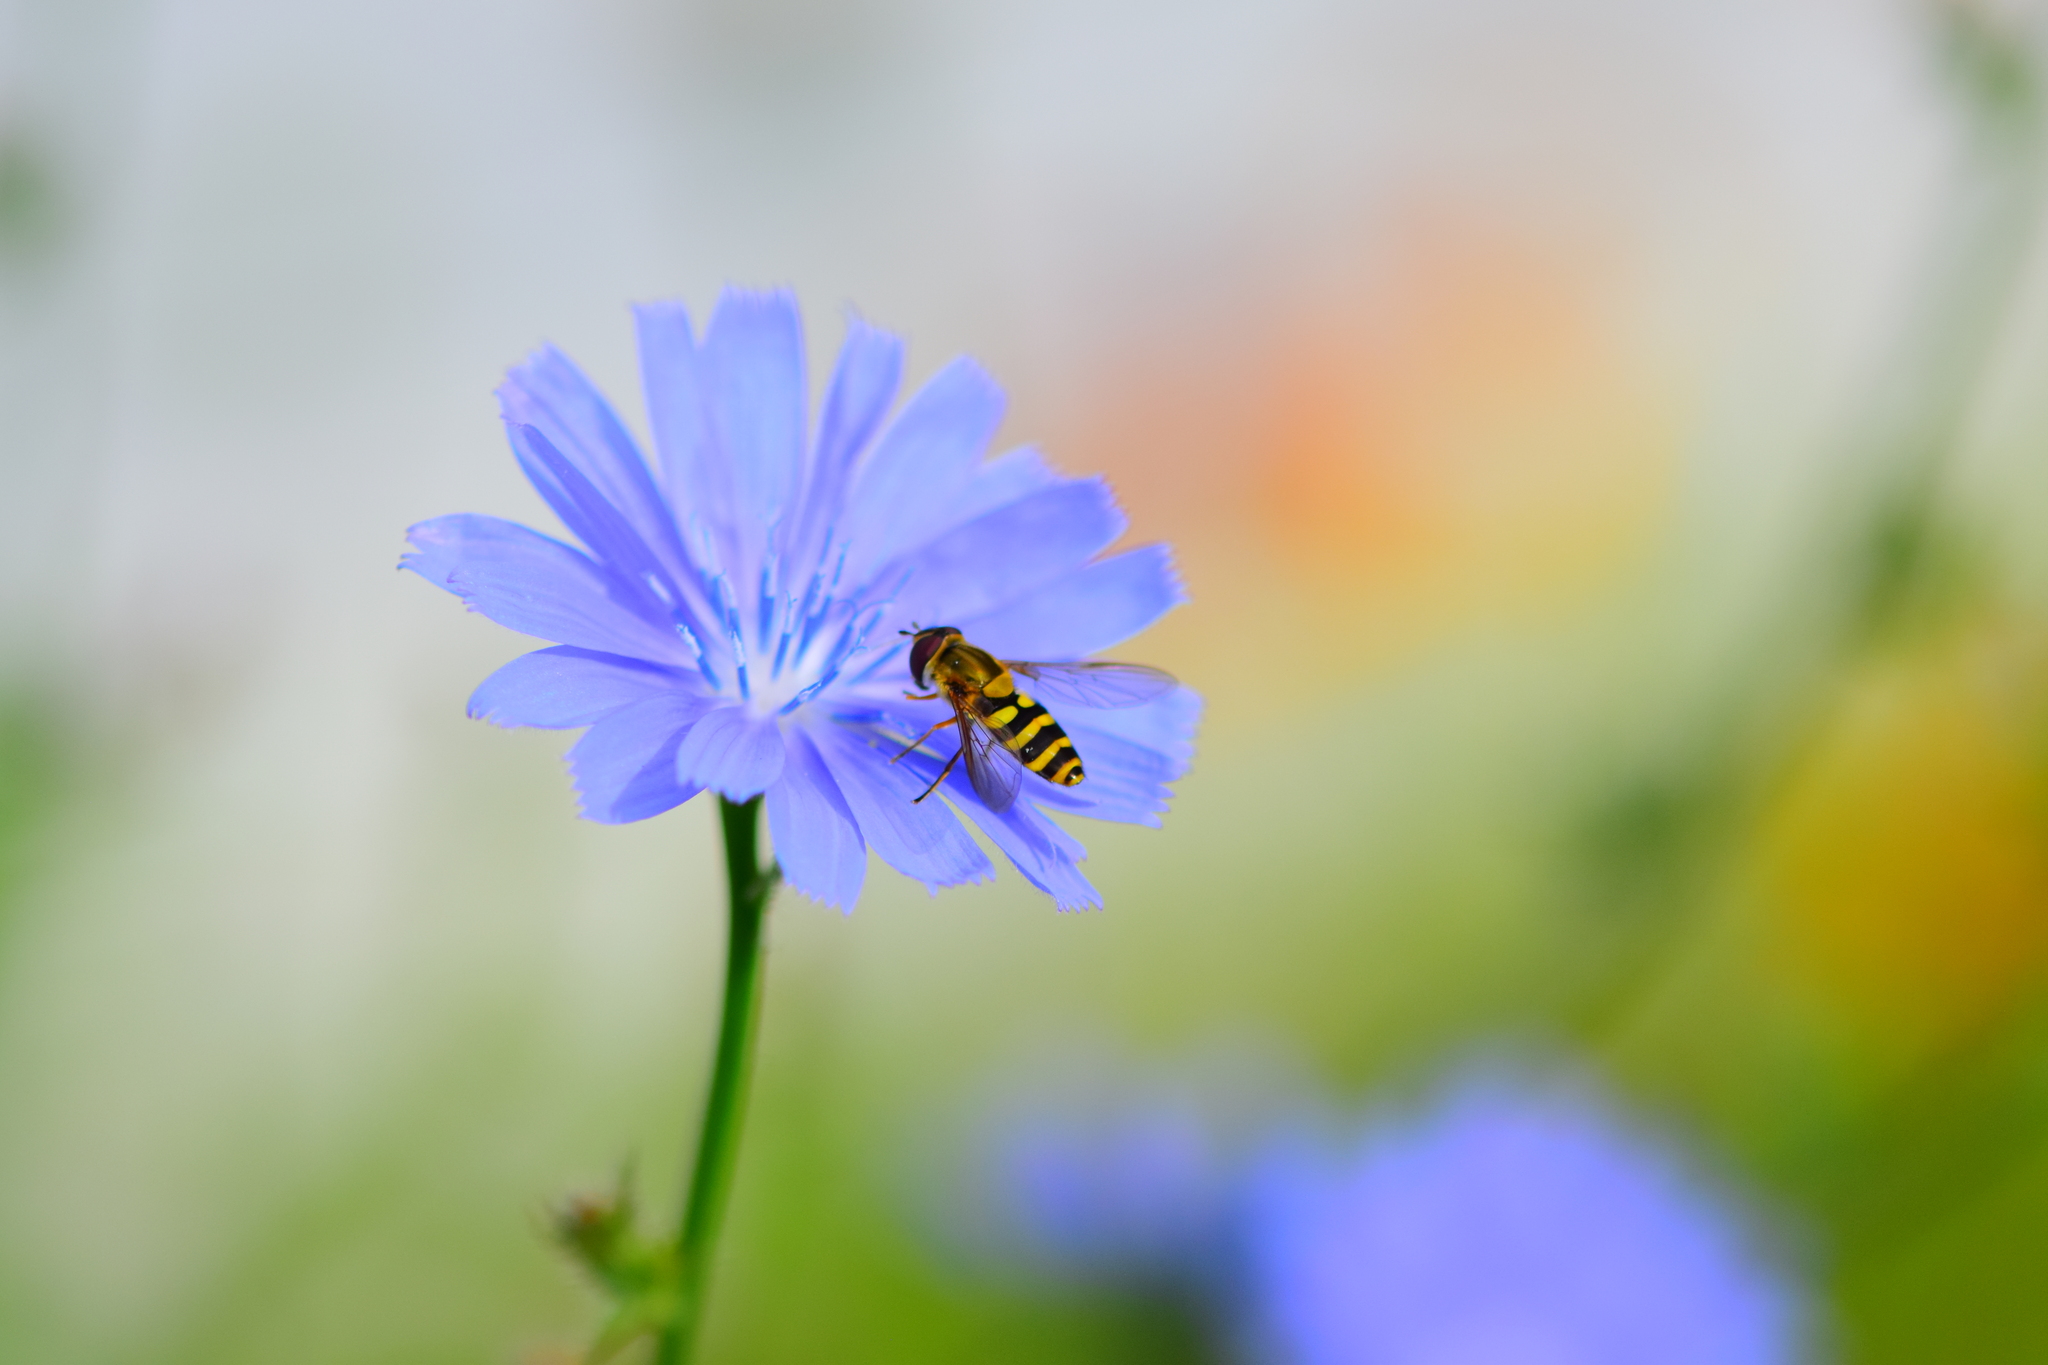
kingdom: Animalia
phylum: Arthropoda
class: Insecta
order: Diptera
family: Syrphidae
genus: Syrphus
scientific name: Syrphus rectus
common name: Yellow-legged flower fly
